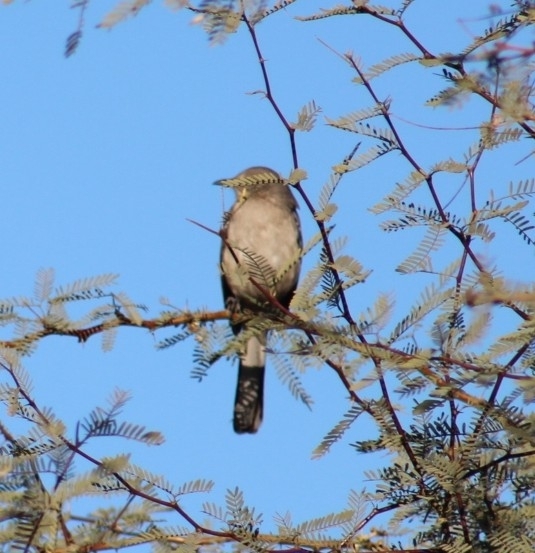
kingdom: Animalia
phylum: Chordata
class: Aves
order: Passeriformes
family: Mimidae
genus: Mimus
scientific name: Mimus polyglottos
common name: Northern mockingbird
